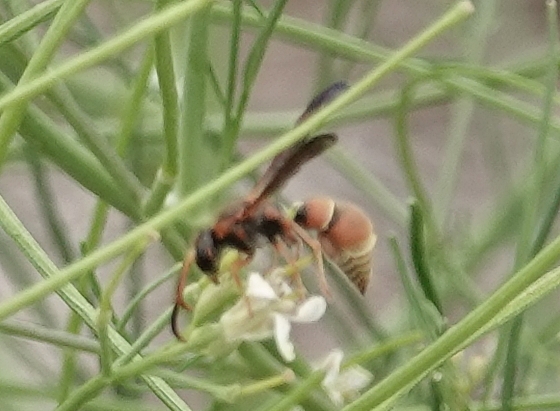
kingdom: Animalia
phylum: Arthropoda
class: Insecta
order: Hymenoptera
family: Vespidae
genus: Ancistrocerus
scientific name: Ancistrocerus tuberculocephalus
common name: Vespid wasp
